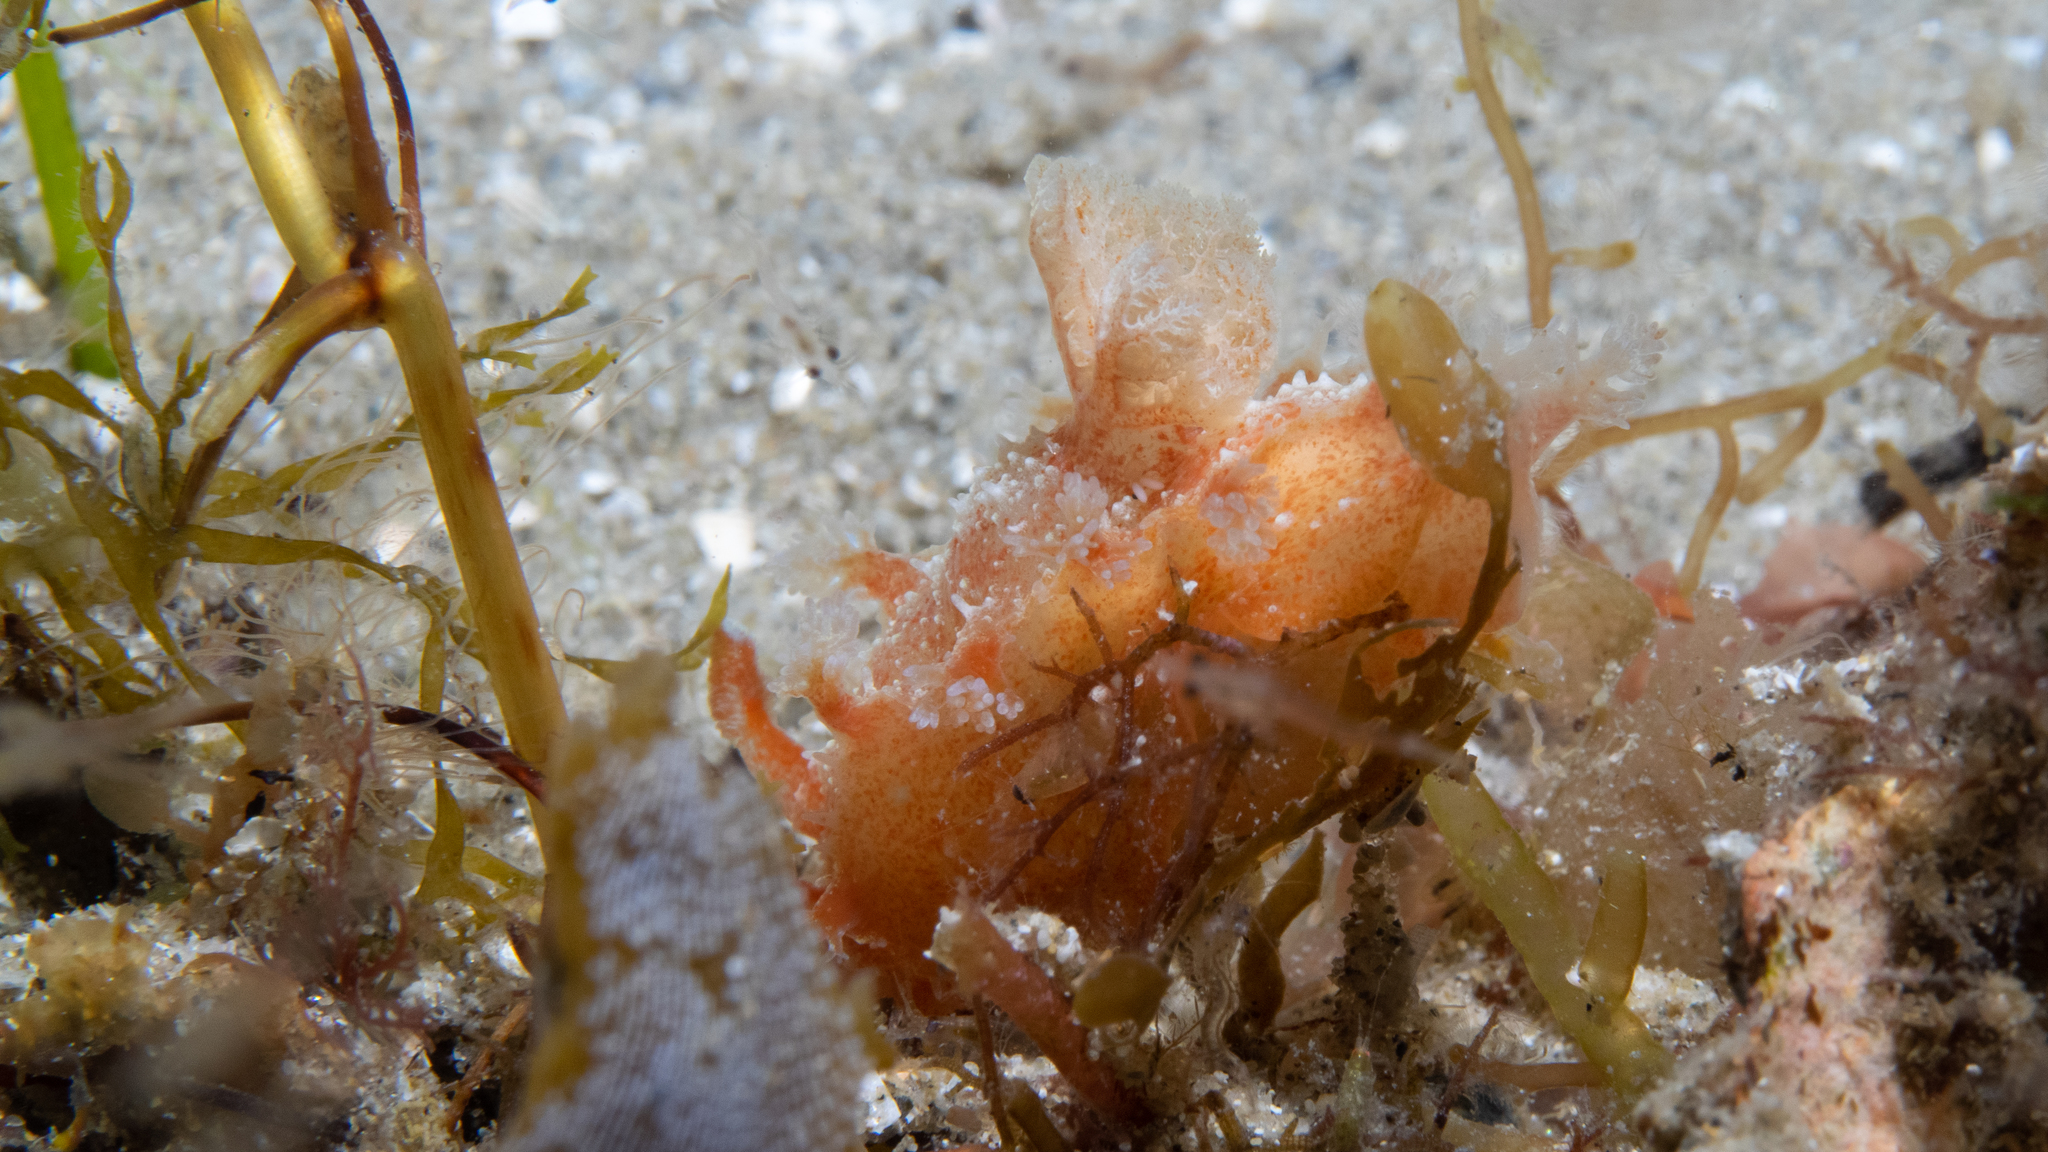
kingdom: Animalia
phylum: Mollusca
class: Gastropoda
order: Nudibranchia
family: Polyceridae
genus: Kaloplocamus
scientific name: Kaloplocamus ramosus
